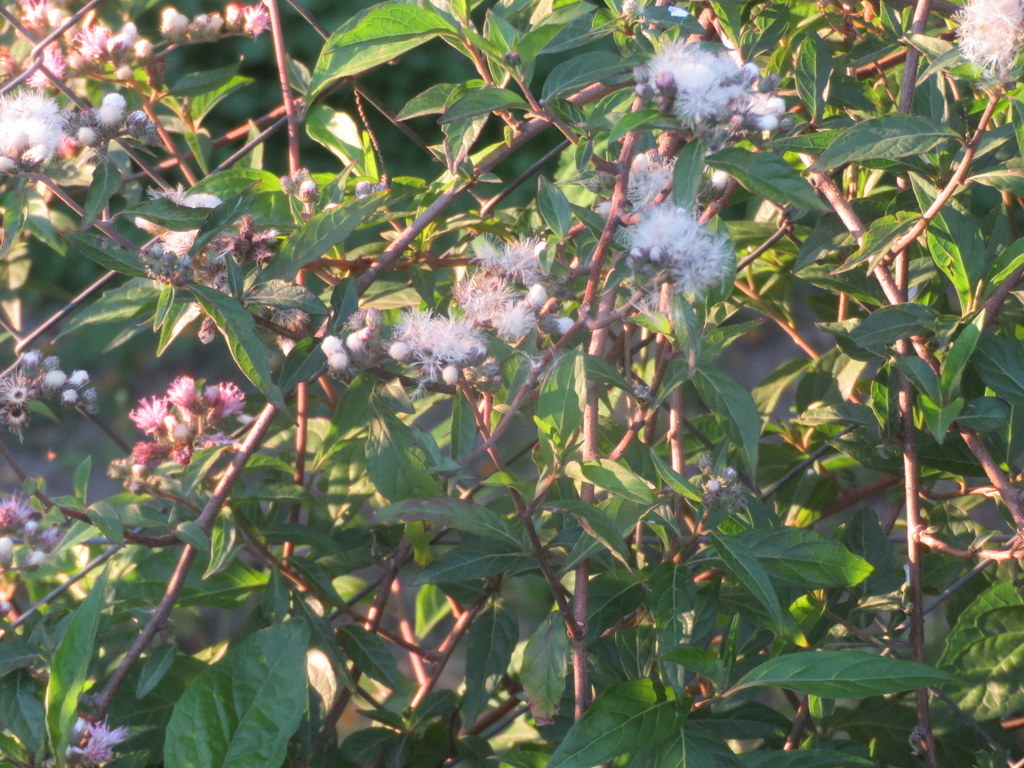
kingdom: Plantae
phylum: Tracheophyta
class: Magnoliopsida
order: Asterales
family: Asteraceae
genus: Cyrtocymura
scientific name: Cyrtocymura scorpioides
